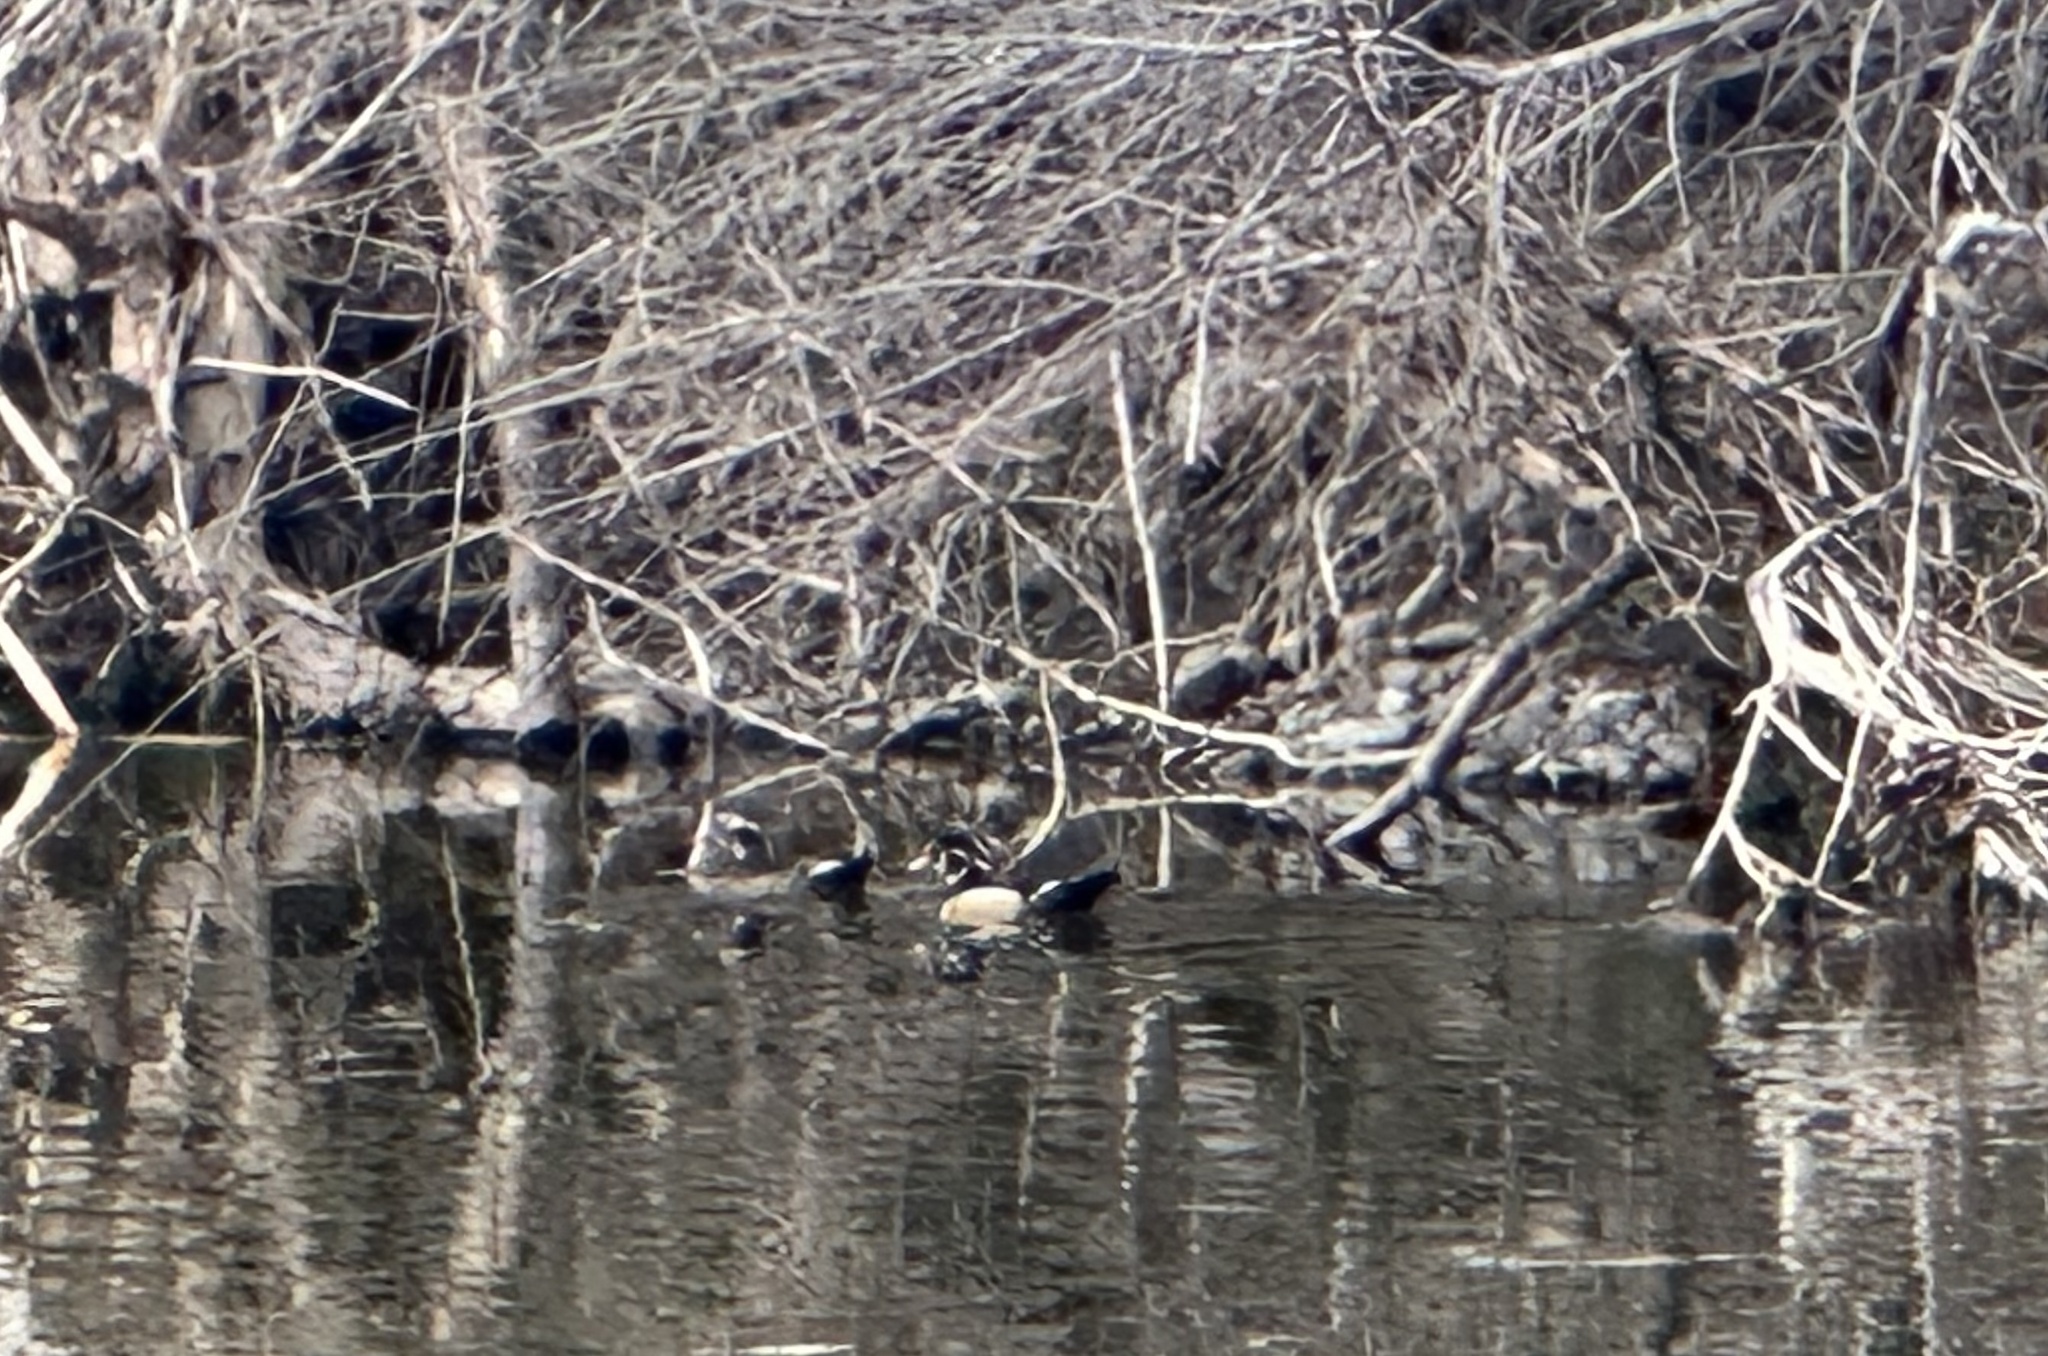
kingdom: Animalia
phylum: Chordata
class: Aves
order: Anseriformes
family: Anatidae
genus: Aix
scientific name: Aix sponsa
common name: Wood duck
